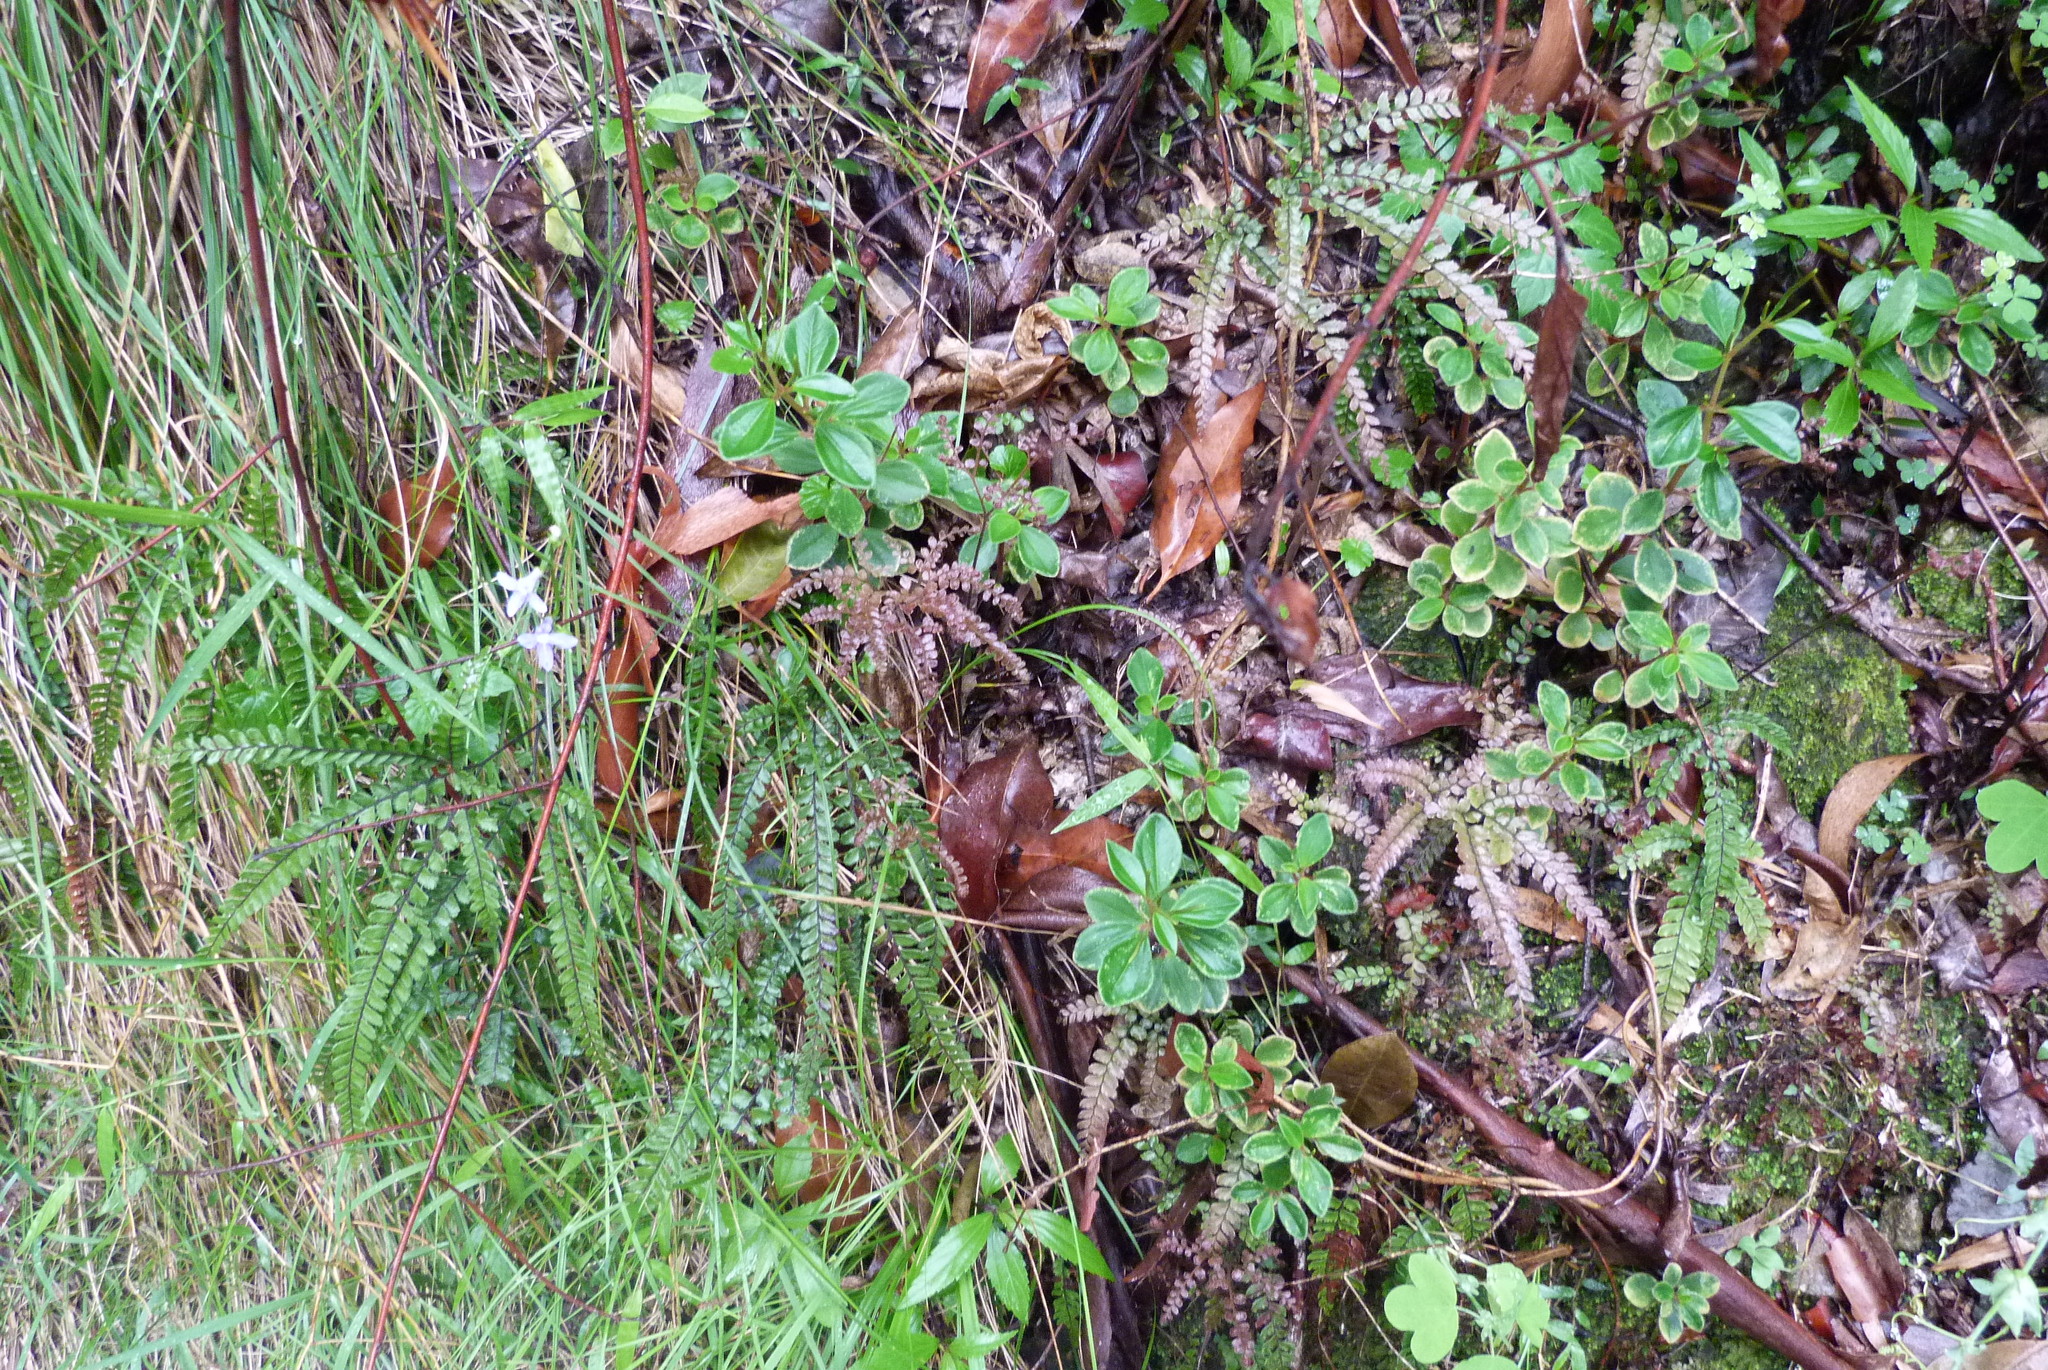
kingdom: Plantae
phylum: Tracheophyta
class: Magnoliopsida
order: Piperales
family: Piperaceae
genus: Peperomia
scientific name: Peperomia leptostachya
